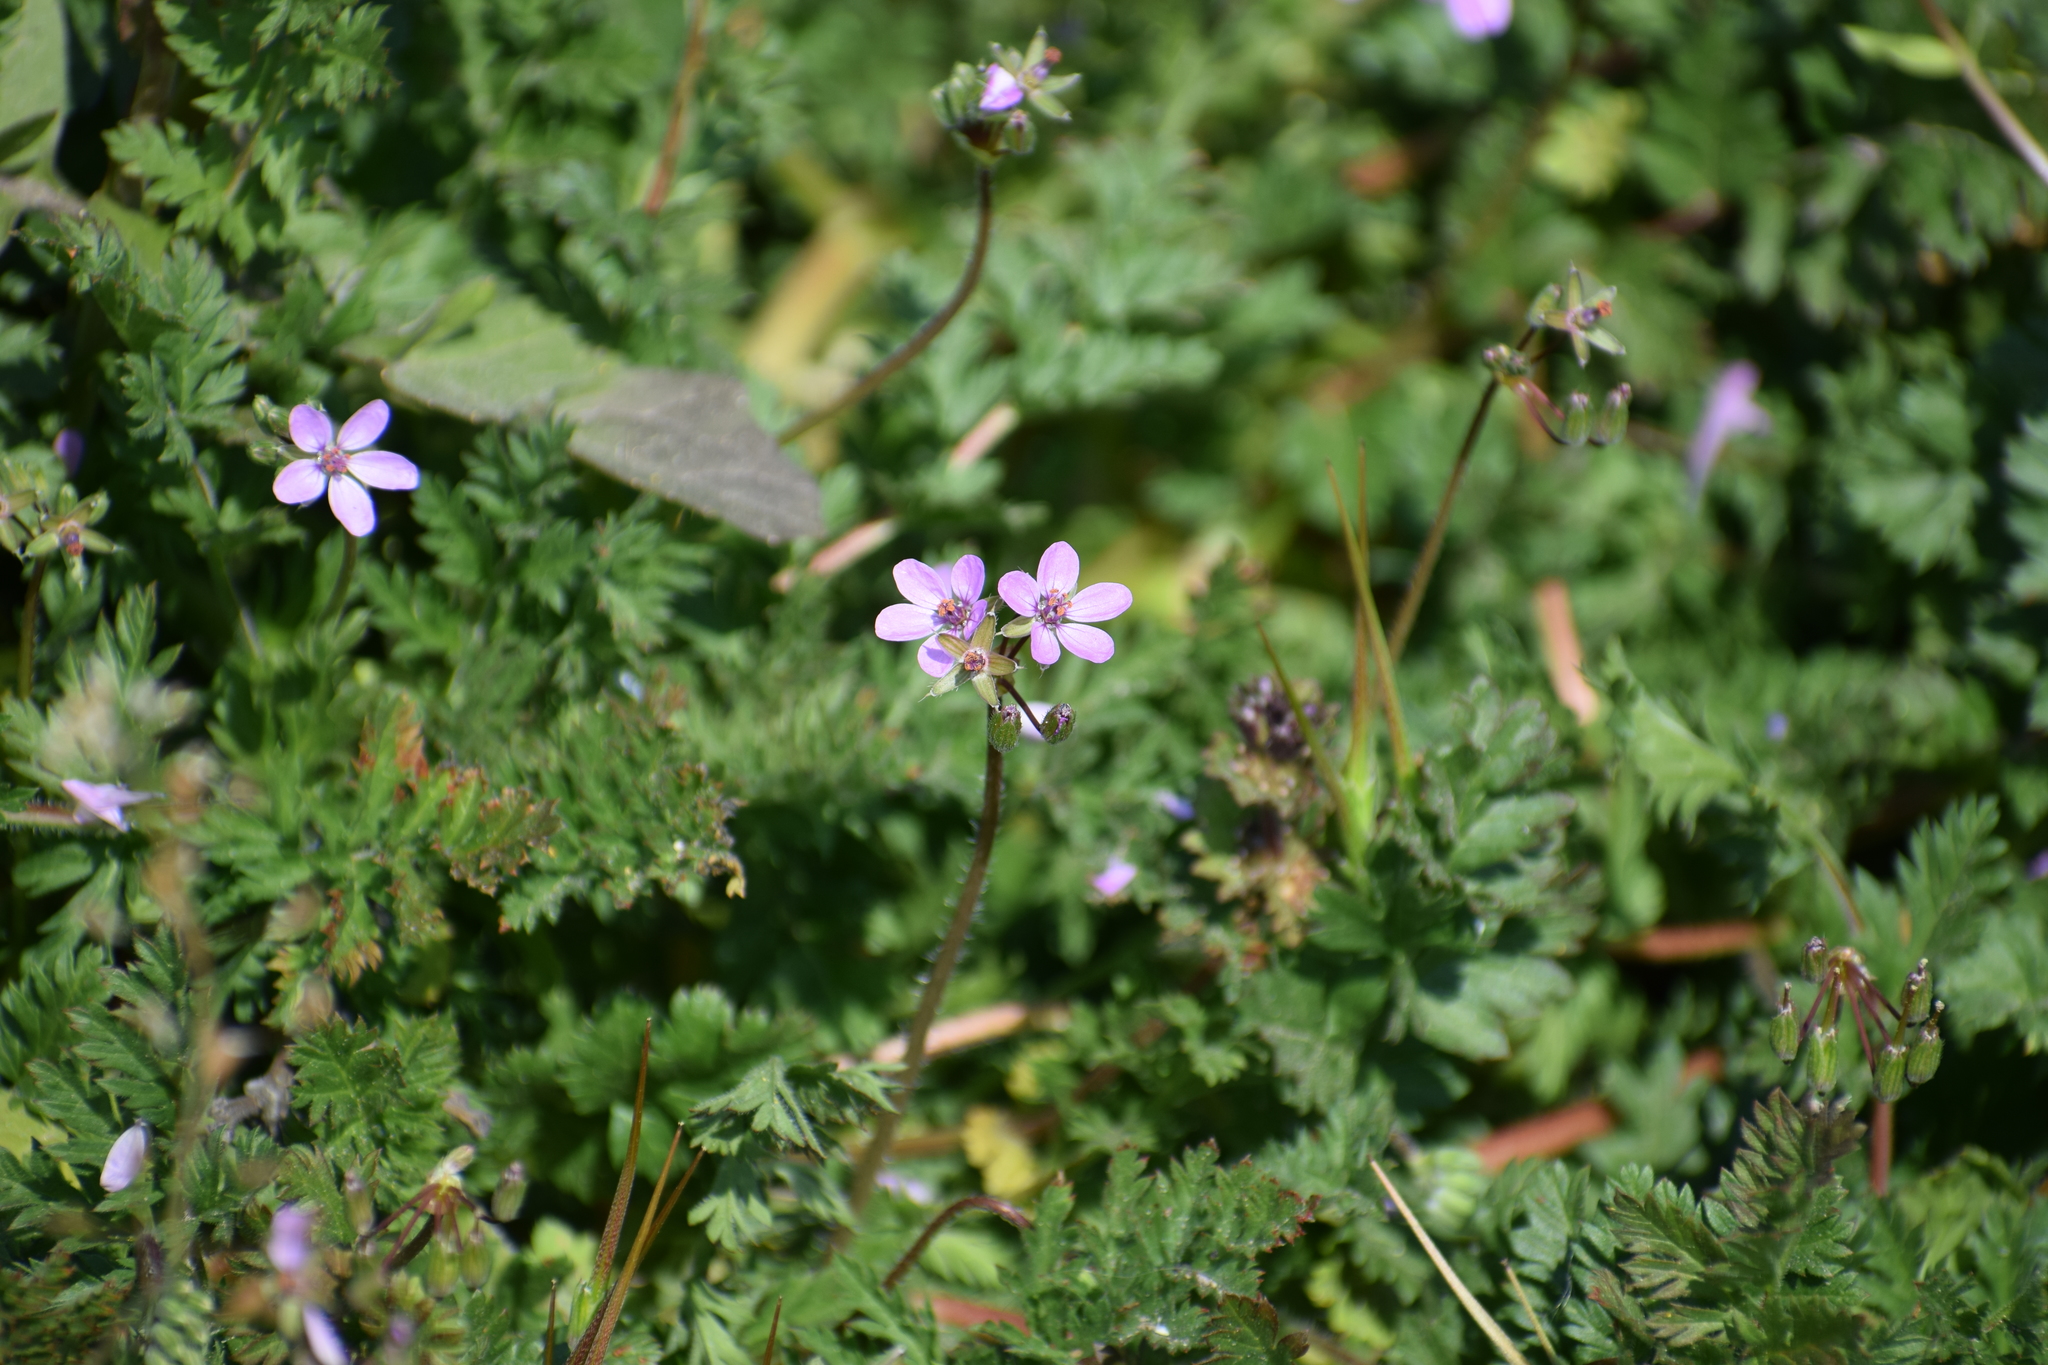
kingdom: Plantae
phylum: Tracheophyta
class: Magnoliopsida
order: Geraniales
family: Geraniaceae
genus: Erodium
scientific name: Erodium cicutarium
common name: Common stork's-bill
